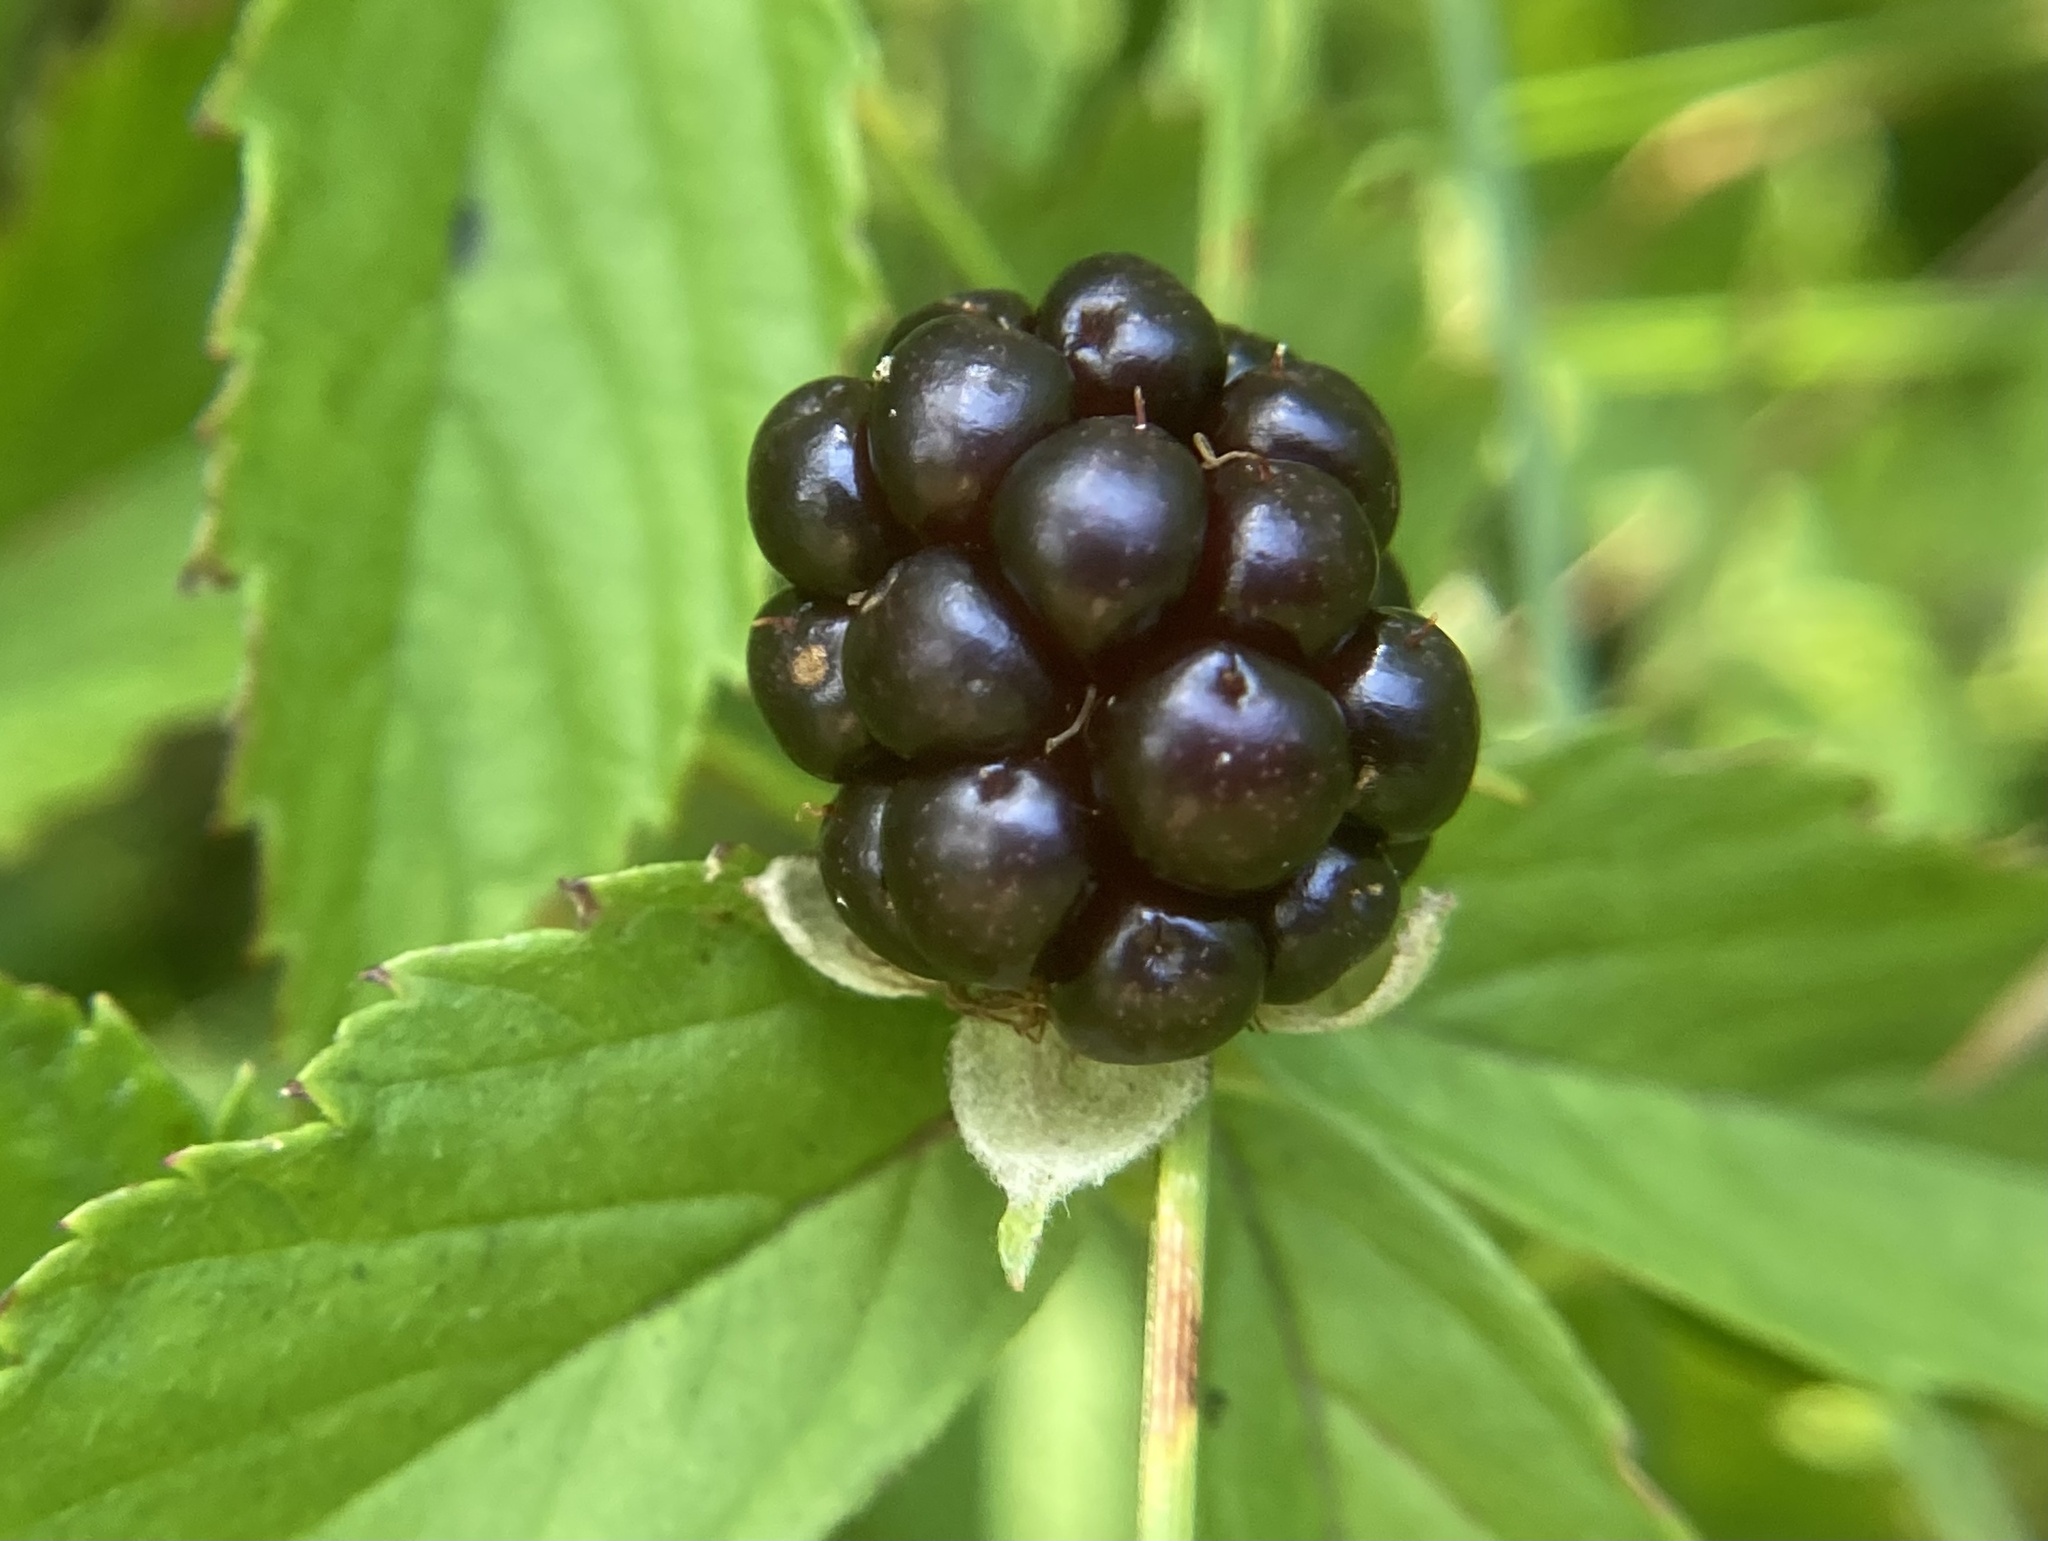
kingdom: Plantae
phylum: Tracheophyta
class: Magnoliopsida
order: Rosales
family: Rosaceae
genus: Rubus
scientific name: Rubus allegheniensis
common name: Allegheny blackberry
